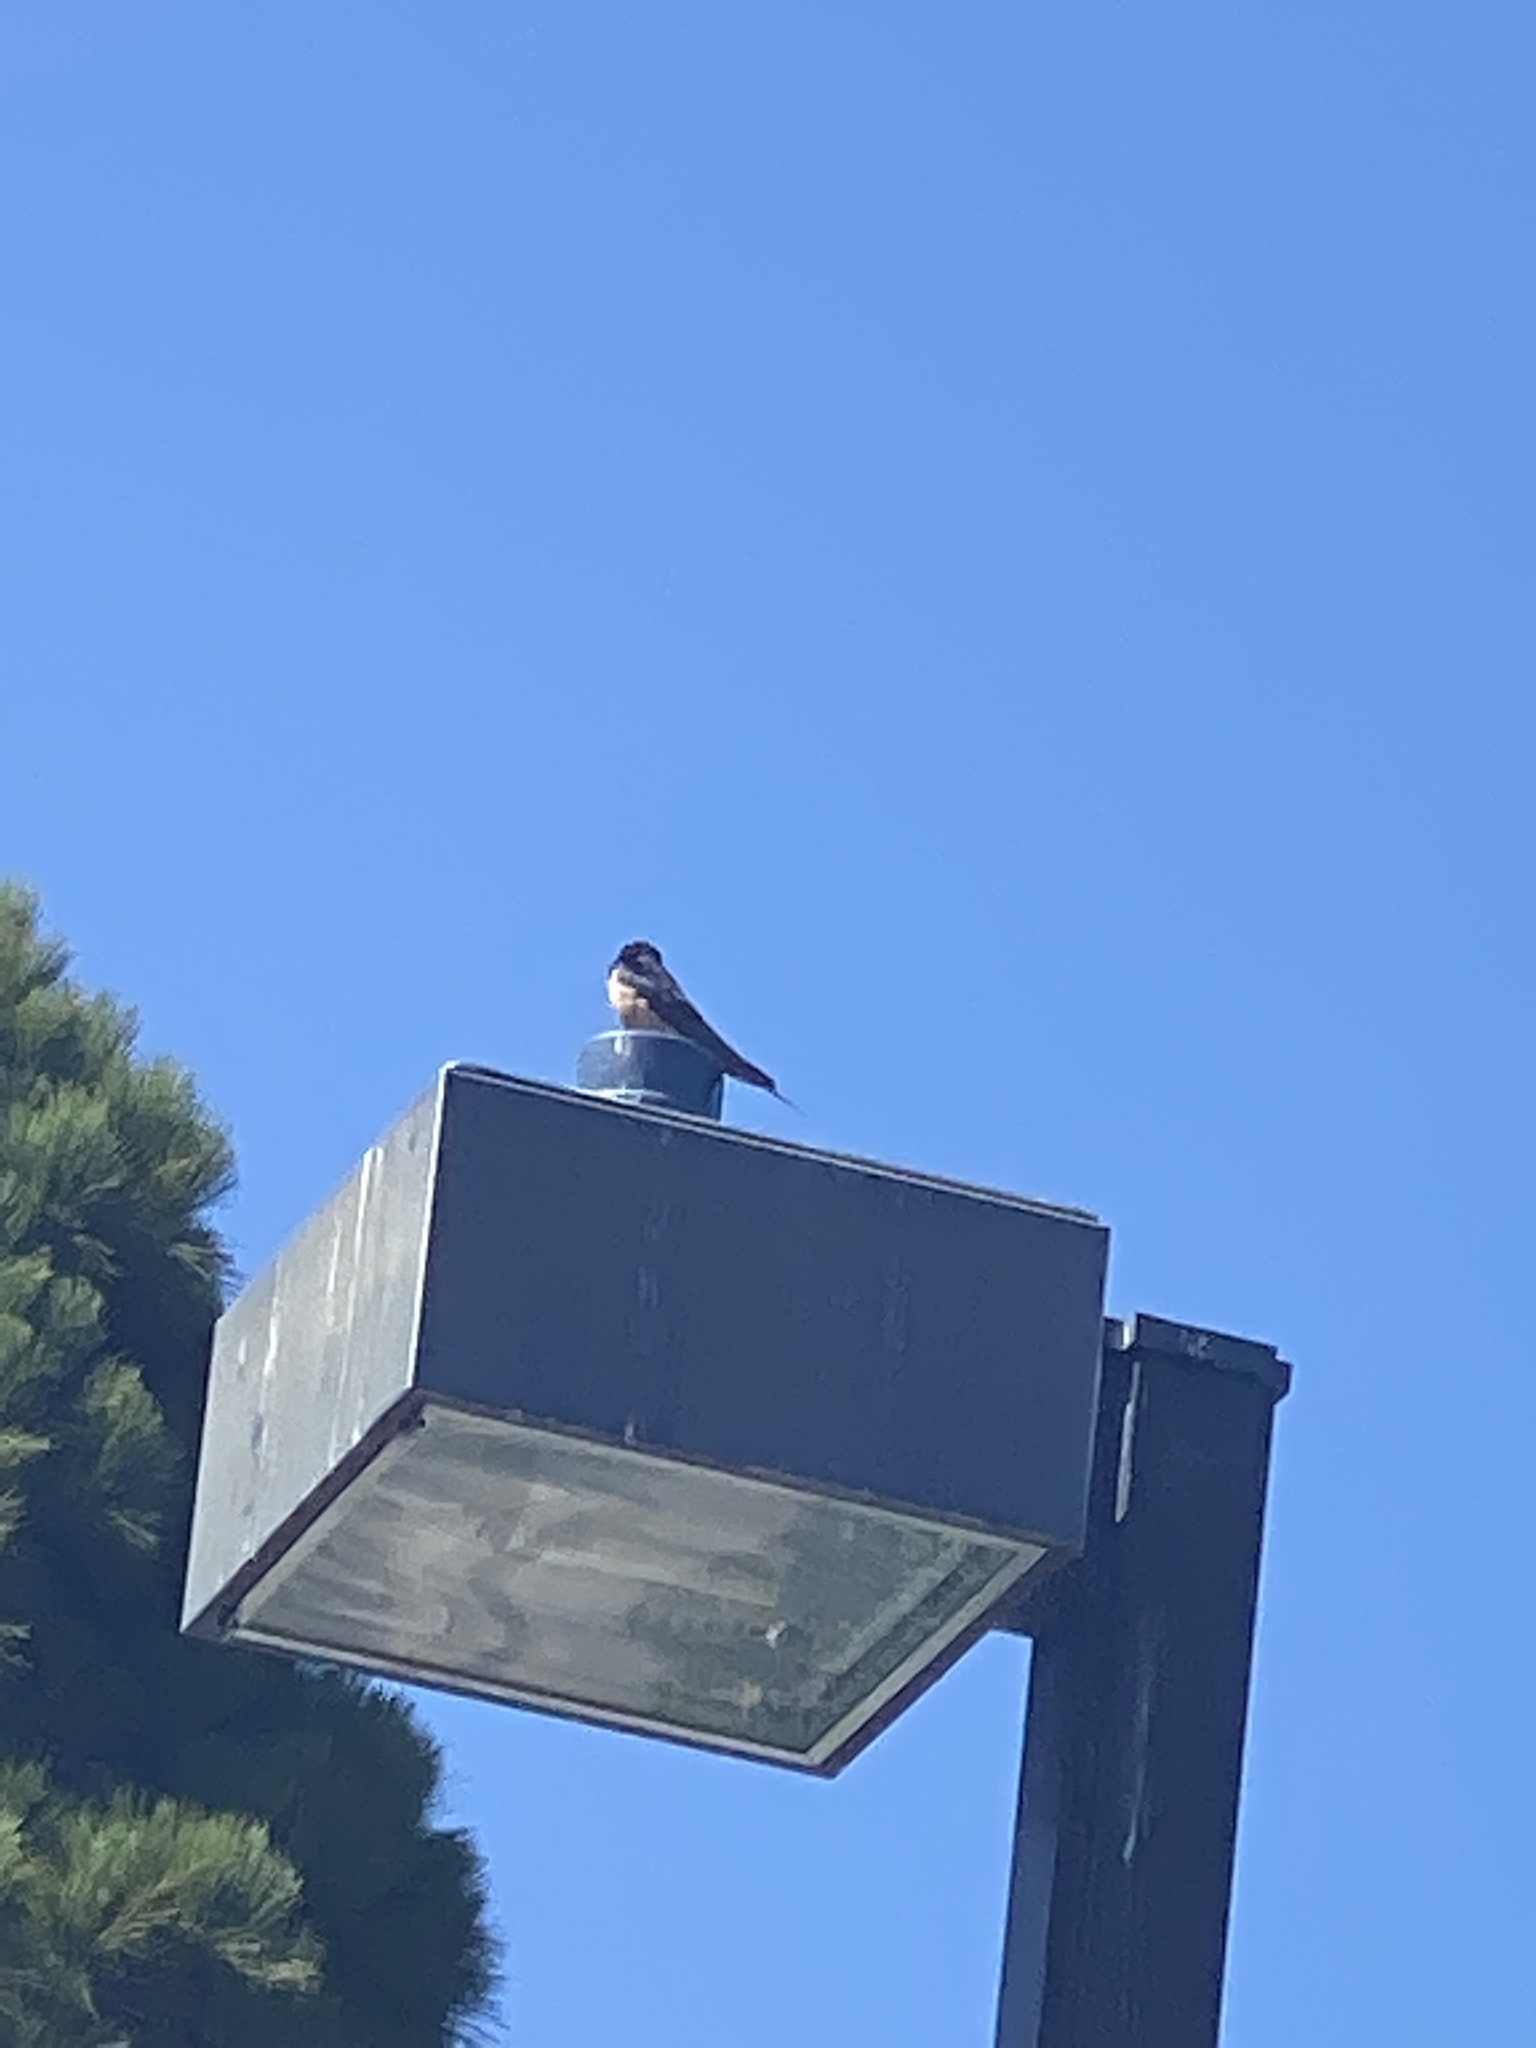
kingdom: Animalia
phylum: Chordata
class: Aves
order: Passeriformes
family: Hirundinidae
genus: Hirundo
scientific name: Hirundo rustica
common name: Barn swallow
